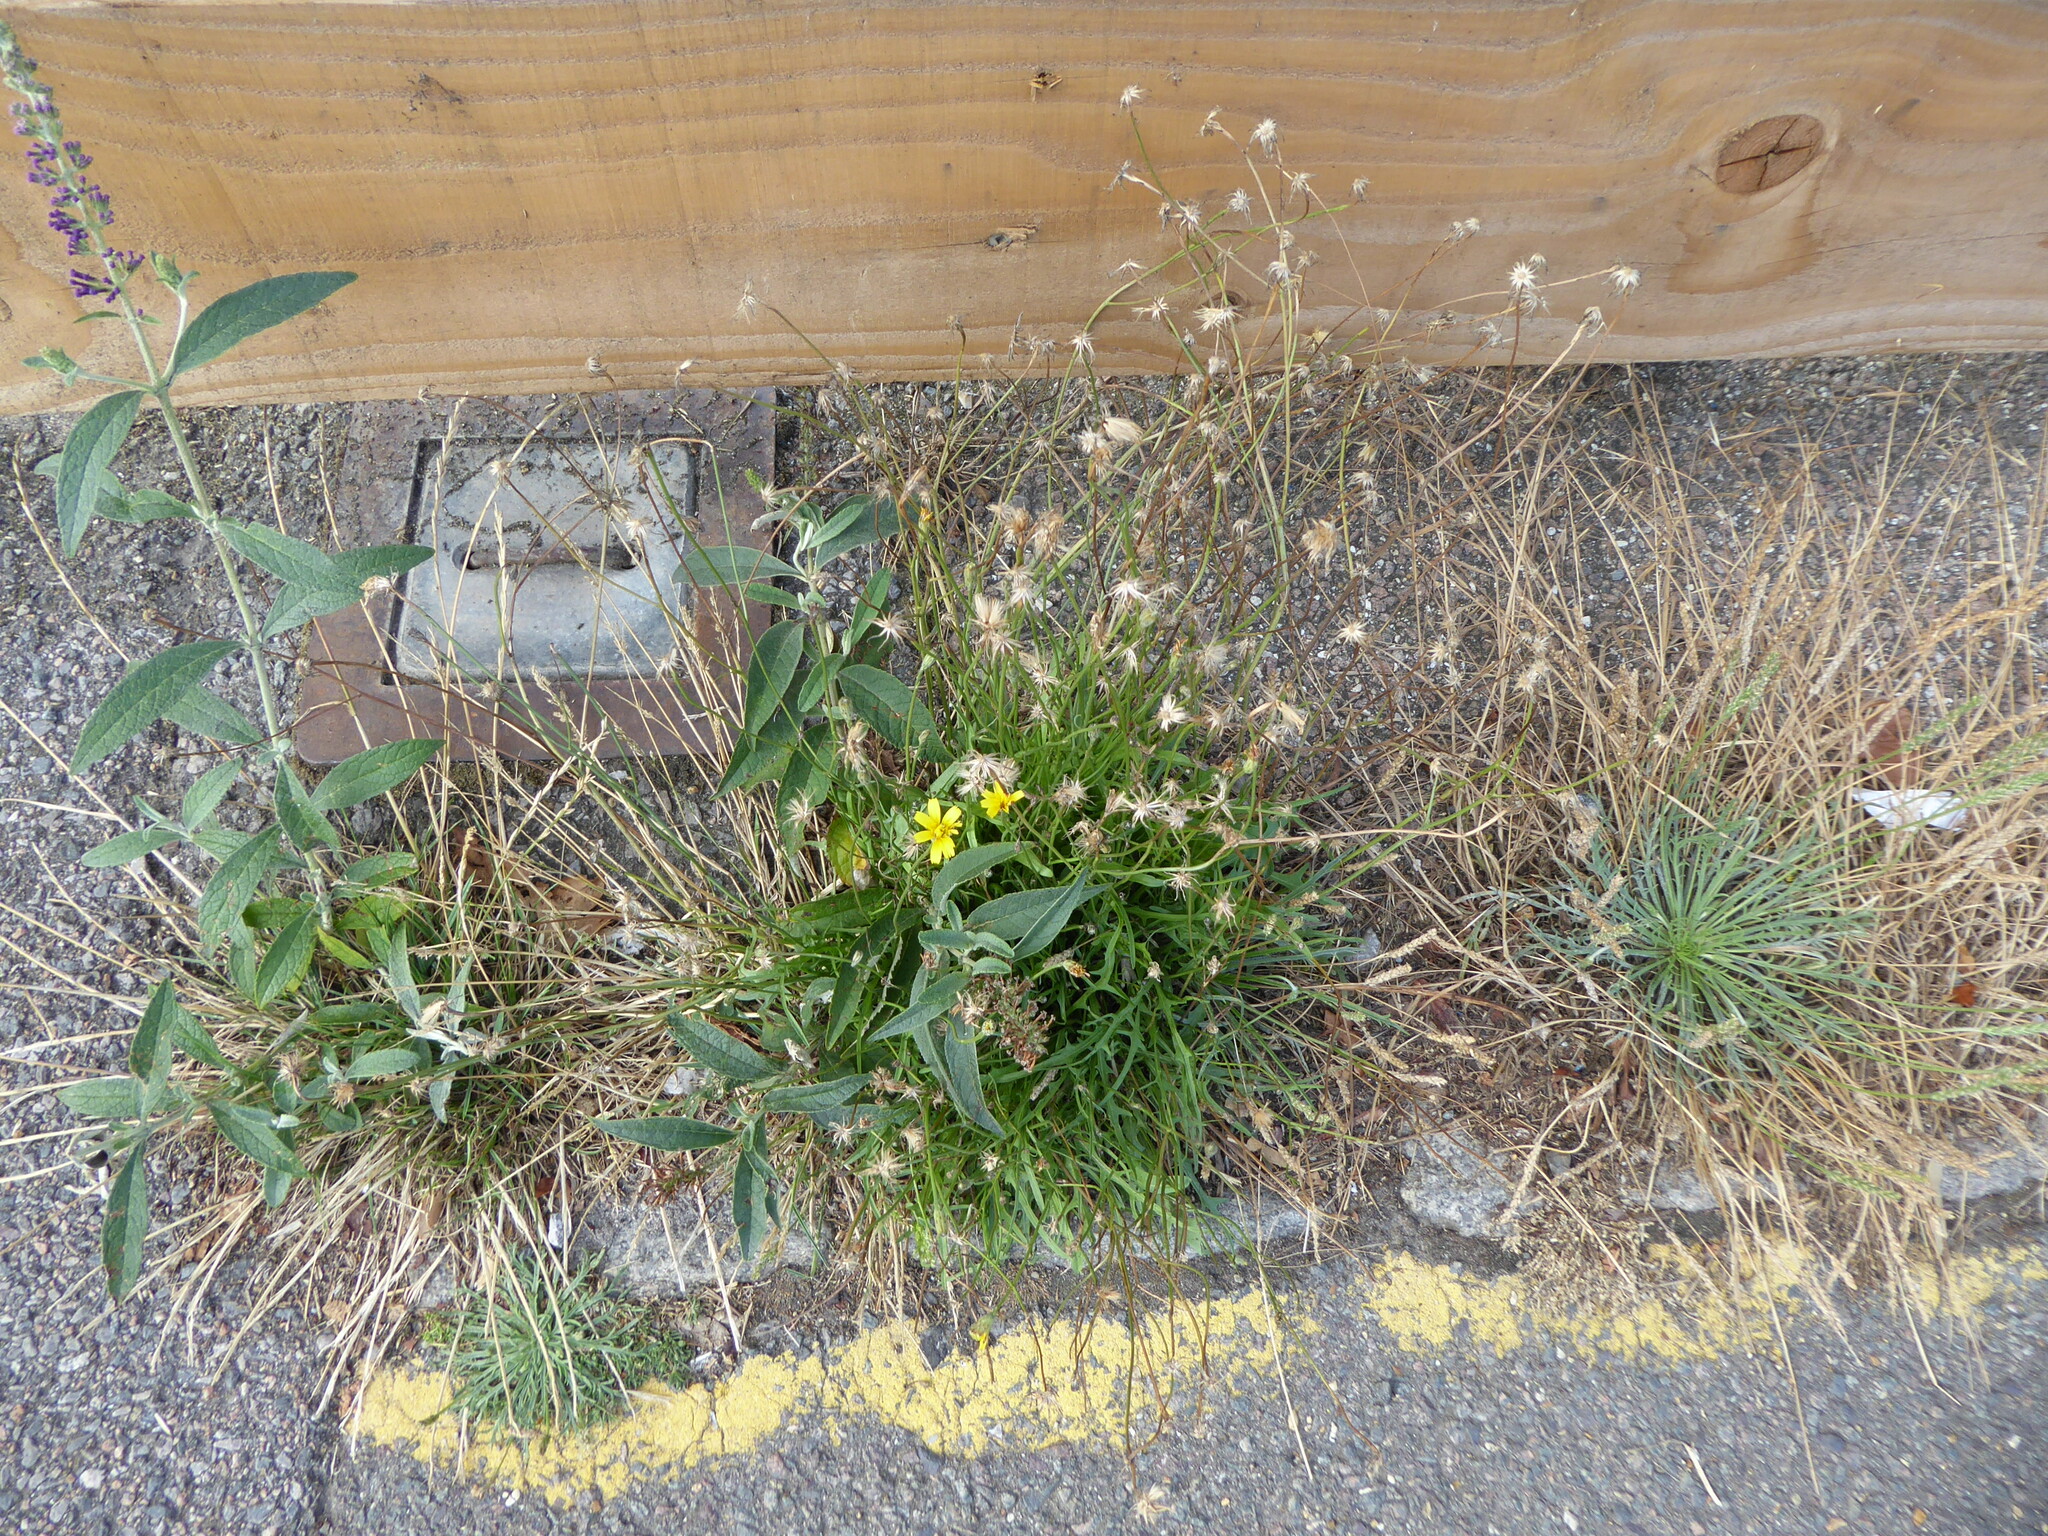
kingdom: Plantae
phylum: Tracheophyta
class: Magnoliopsida
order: Asterales
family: Asteraceae
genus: Scorzoneroides
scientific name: Scorzoneroides autumnalis
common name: Autumn hawkbit
